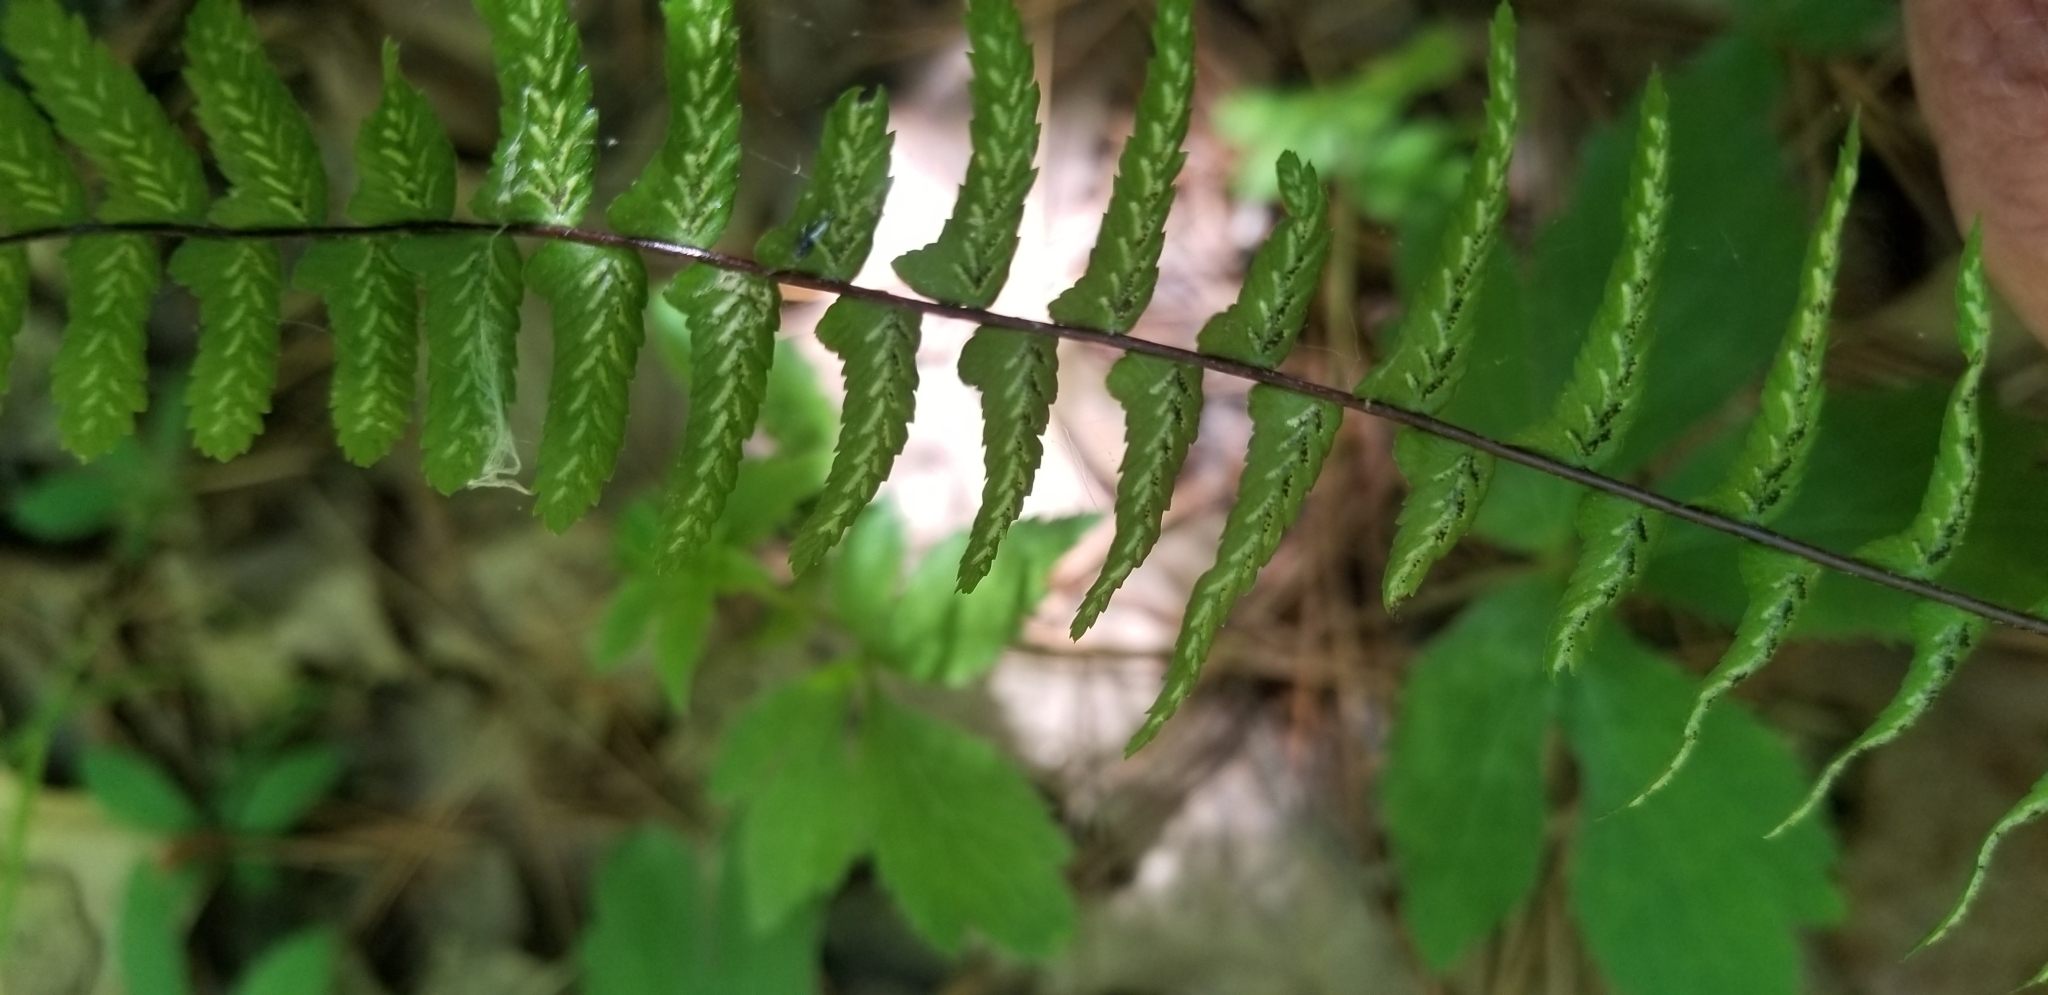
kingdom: Plantae
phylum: Tracheophyta
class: Polypodiopsida
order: Polypodiales
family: Aspleniaceae
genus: Asplenium
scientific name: Asplenium platyneuron
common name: Ebony spleenwort
